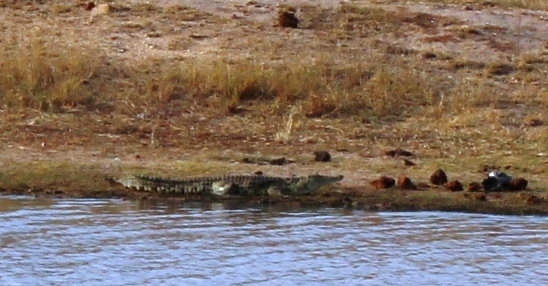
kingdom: Animalia
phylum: Chordata
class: Crocodylia
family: Crocodylidae
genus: Crocodylus
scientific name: Crocodylus niloticus
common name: Nile crocodile
